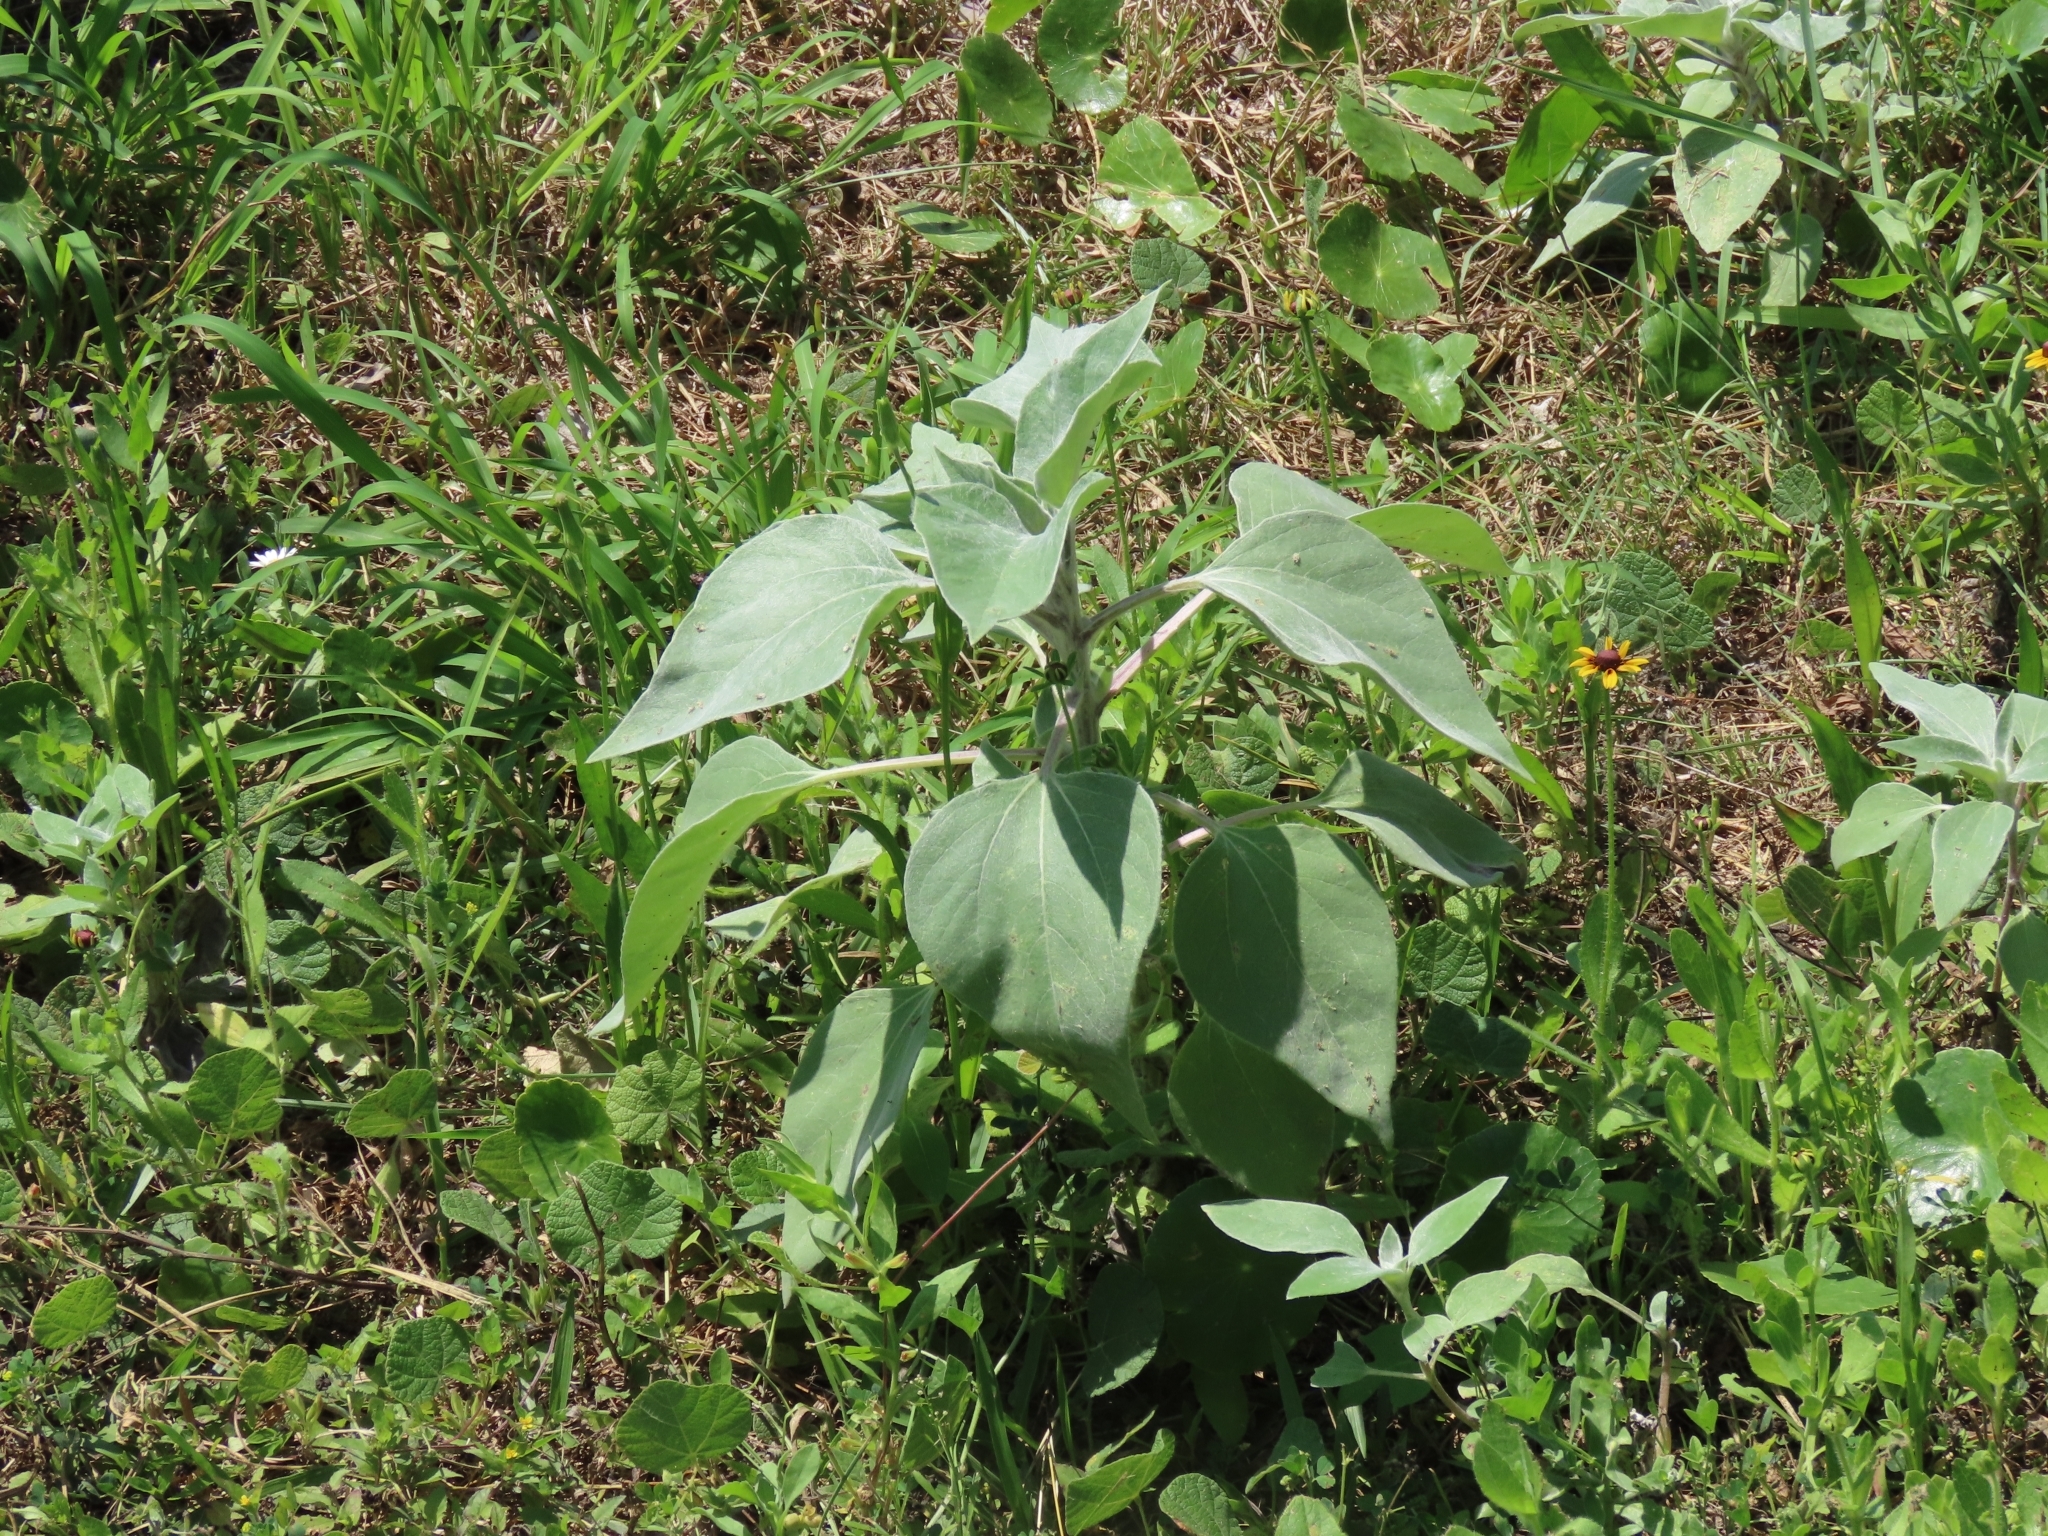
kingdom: Plantae
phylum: Tracheophyta
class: Magnoliopsida
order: Asterales
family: Asteraceae
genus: Helianthus
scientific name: Helianthus argophyllus
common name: Silverleaf sunflower
